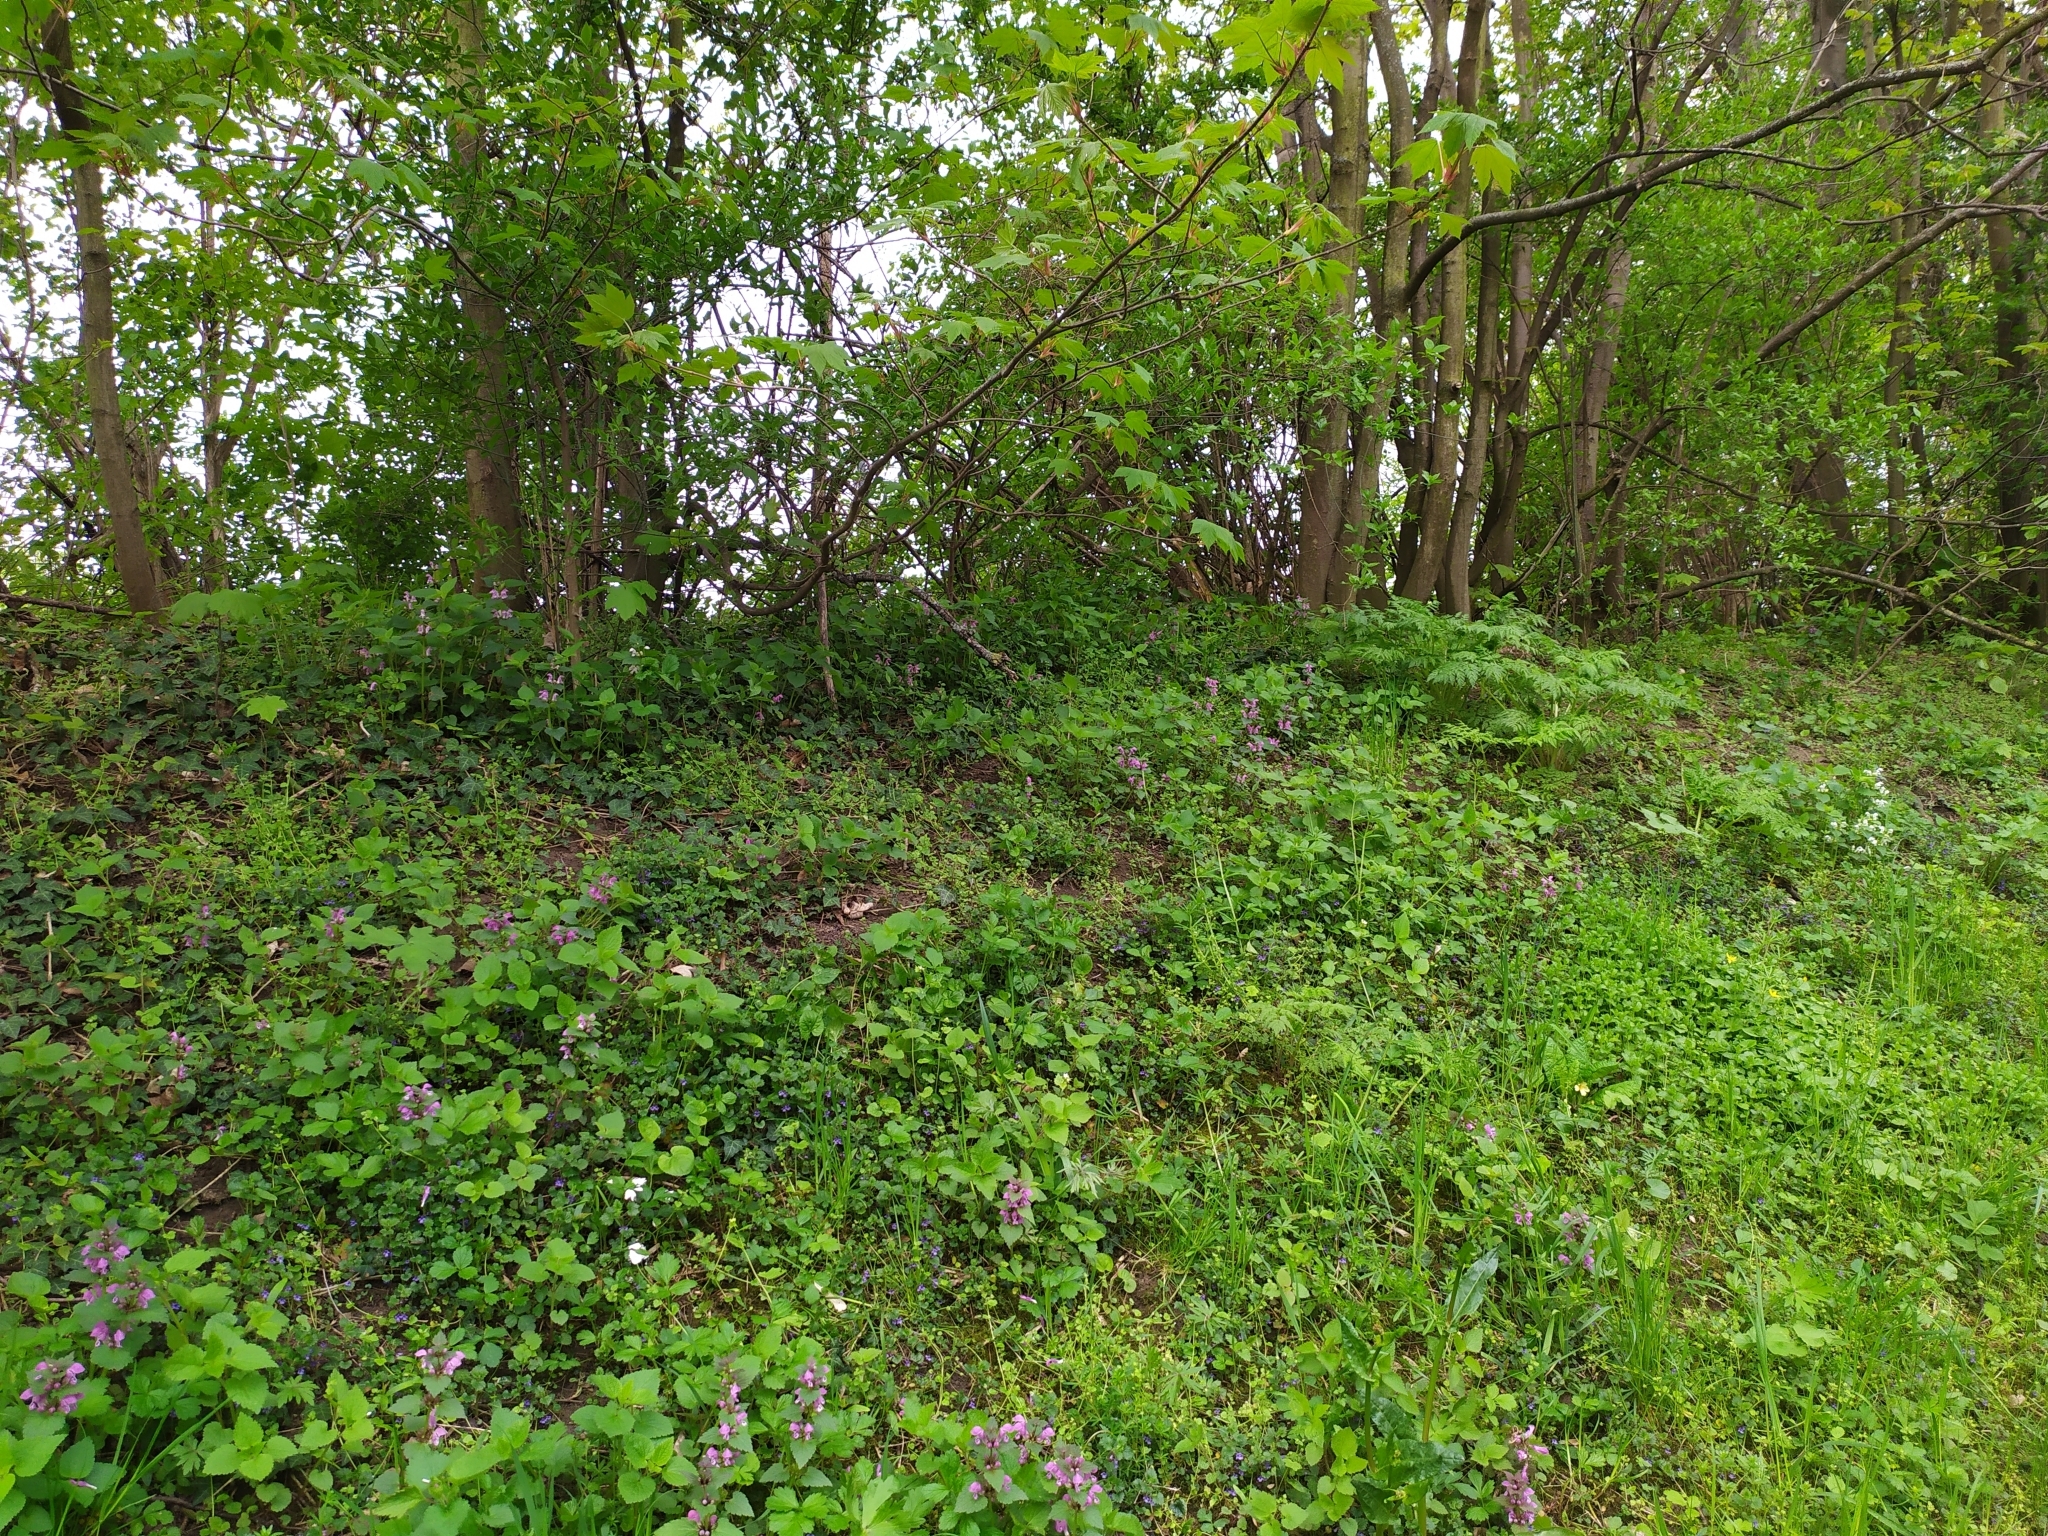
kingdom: Plantae
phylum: Tracheophyta
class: Magnoliopsida
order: Lamiales
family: Lamiaceae
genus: Lamium
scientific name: Lamium maculatum
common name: Spotted dead-nettle
